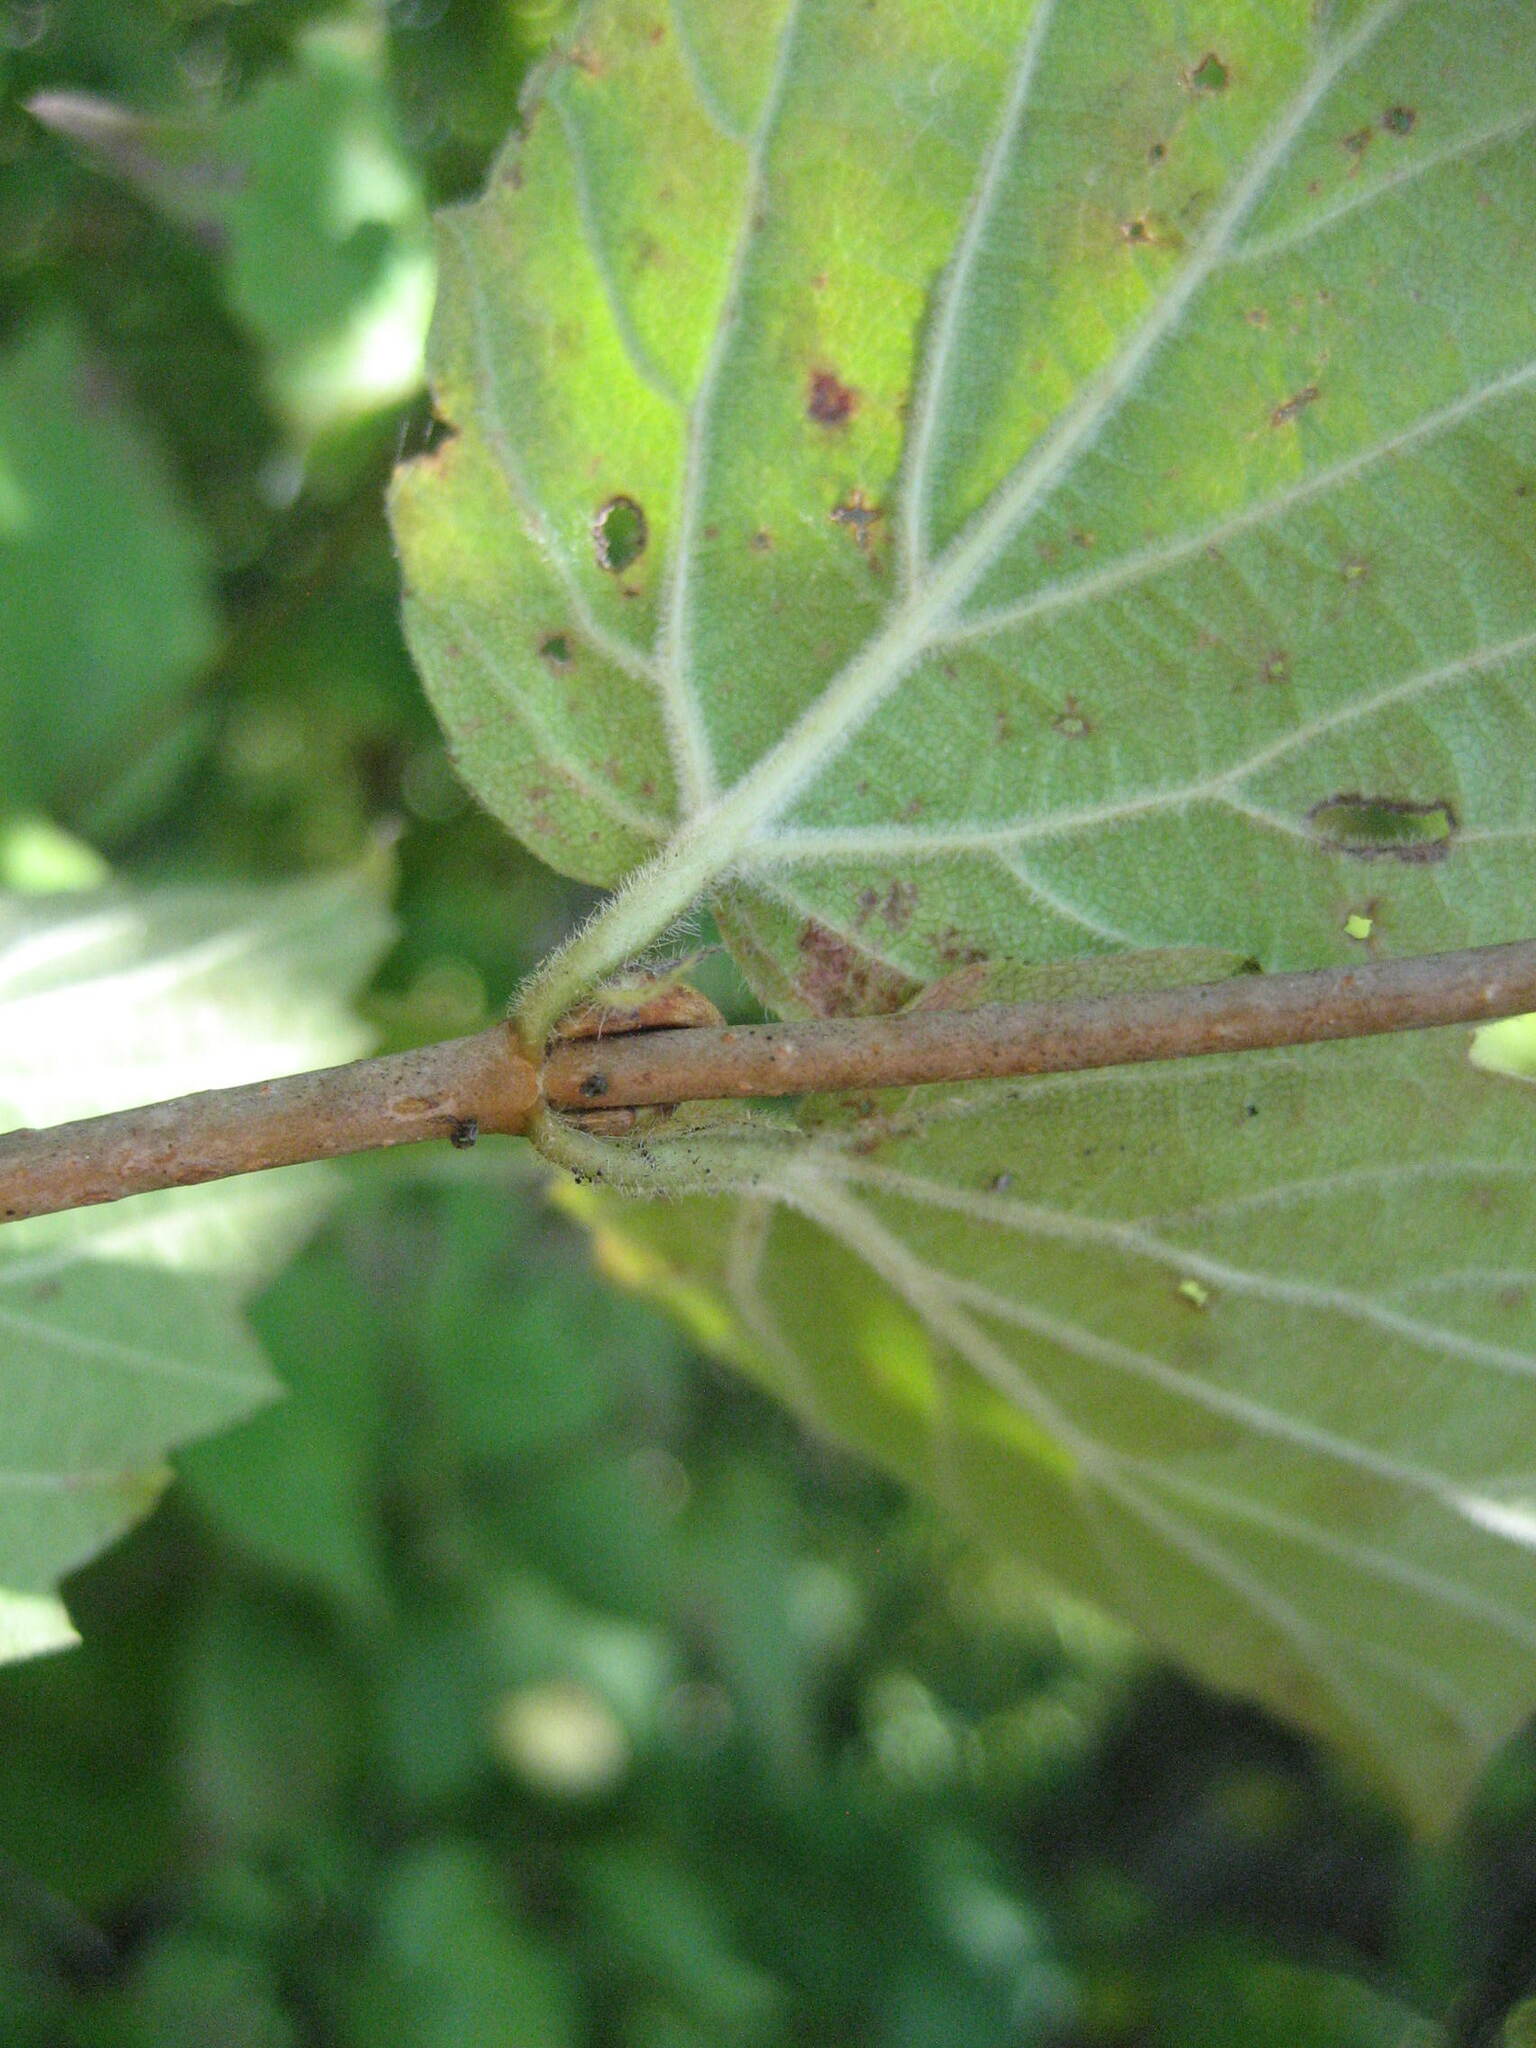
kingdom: Plantae
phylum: Tracheophyta
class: Magnoliopsida
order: Dipsacales
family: Viburnaceae
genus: Viburnum
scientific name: Viburnum rafinesqueanum
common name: Downy arrow-wood
